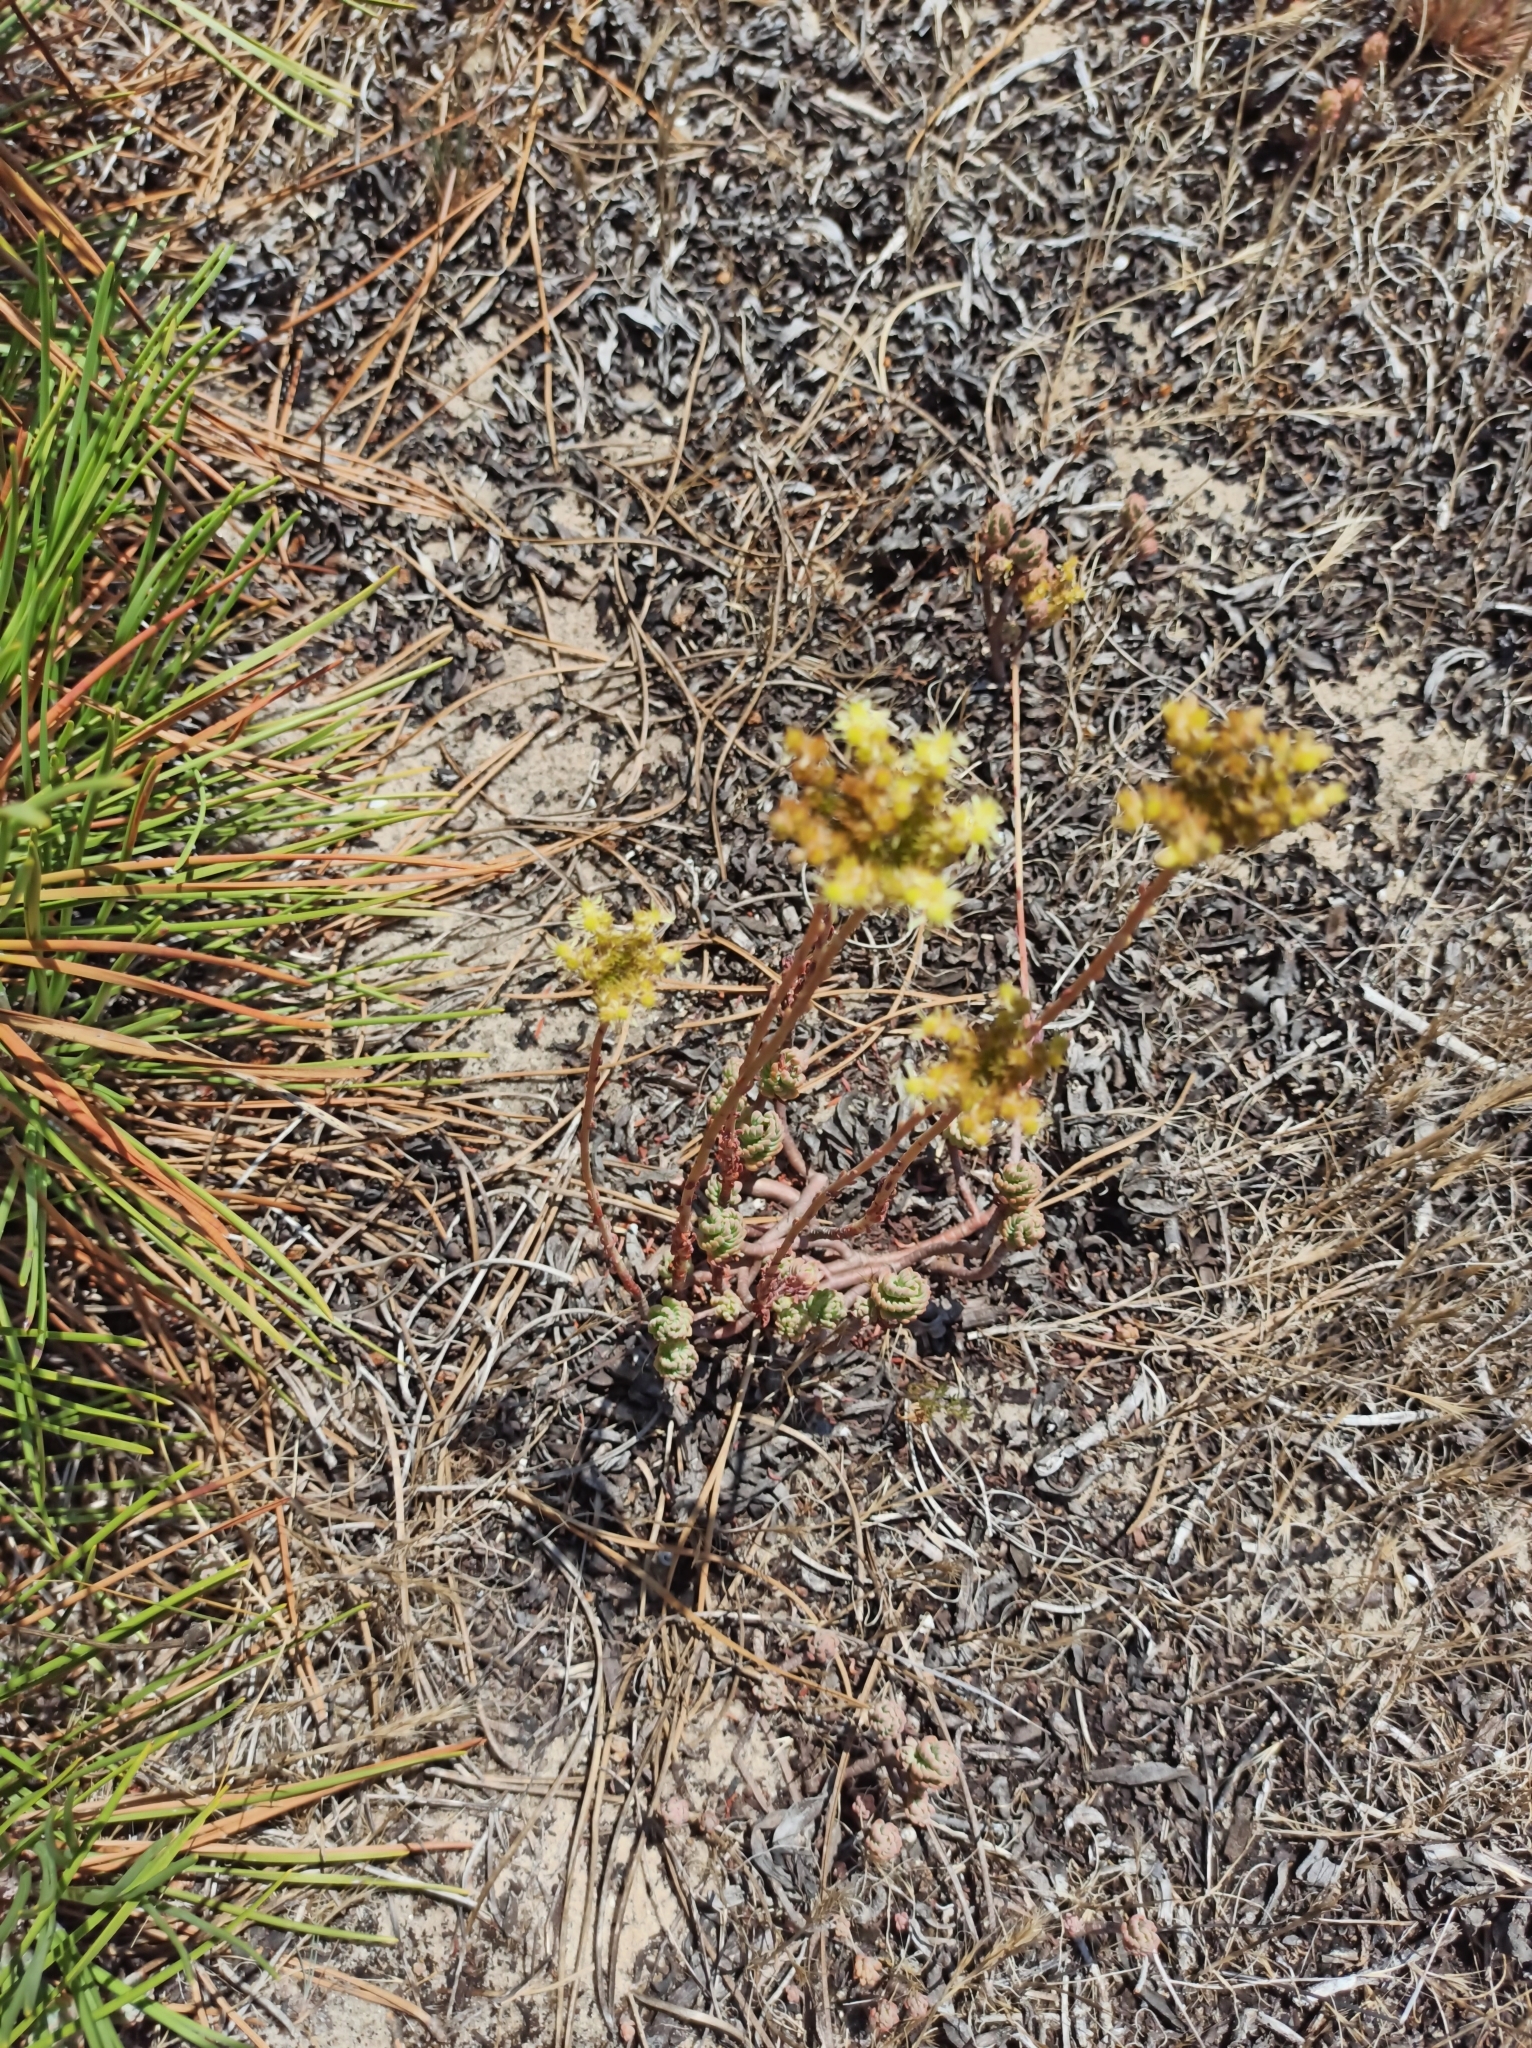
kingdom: Plantae
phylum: Tracheophyta
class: Magnoliopsida
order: Saxifragales
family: Crassulaceae
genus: Petrosedum
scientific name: Petrosedum sediforme
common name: Pale stonecrop
